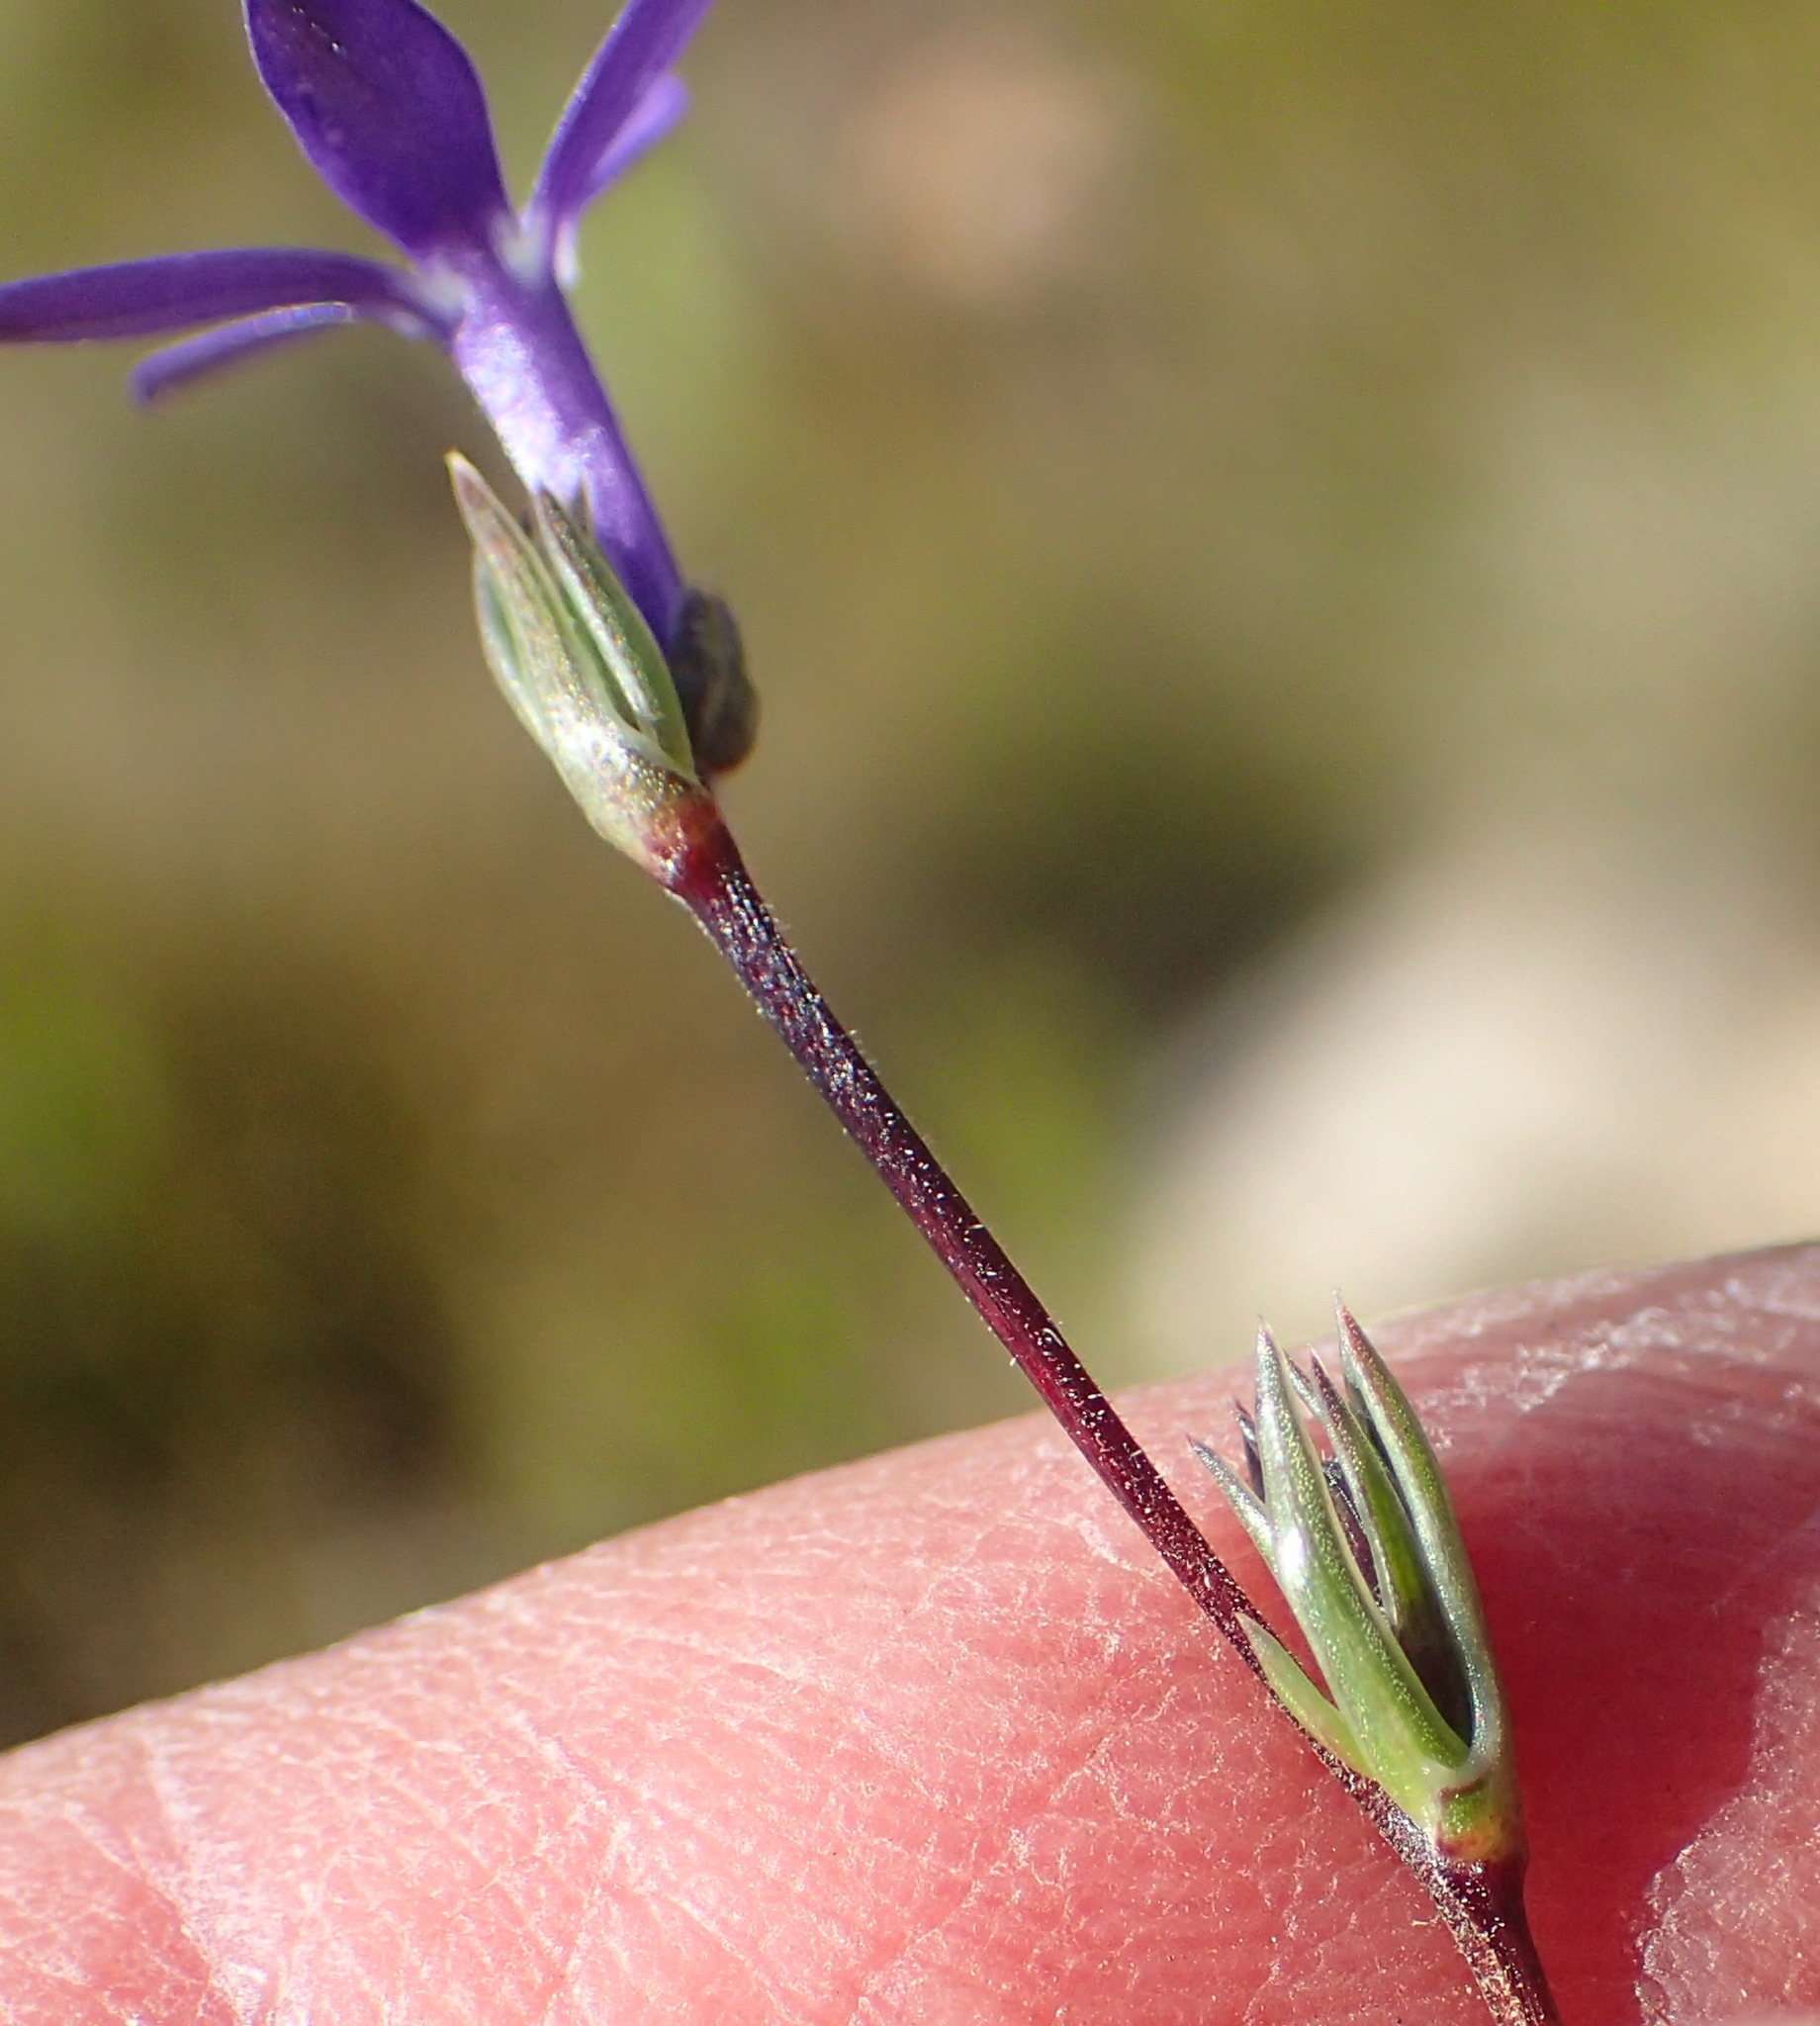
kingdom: Plantae
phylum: Tracheophyta
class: Magnoliopsida
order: Asterales
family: Campanulaceae
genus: Theilera
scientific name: Theilera guthriei
